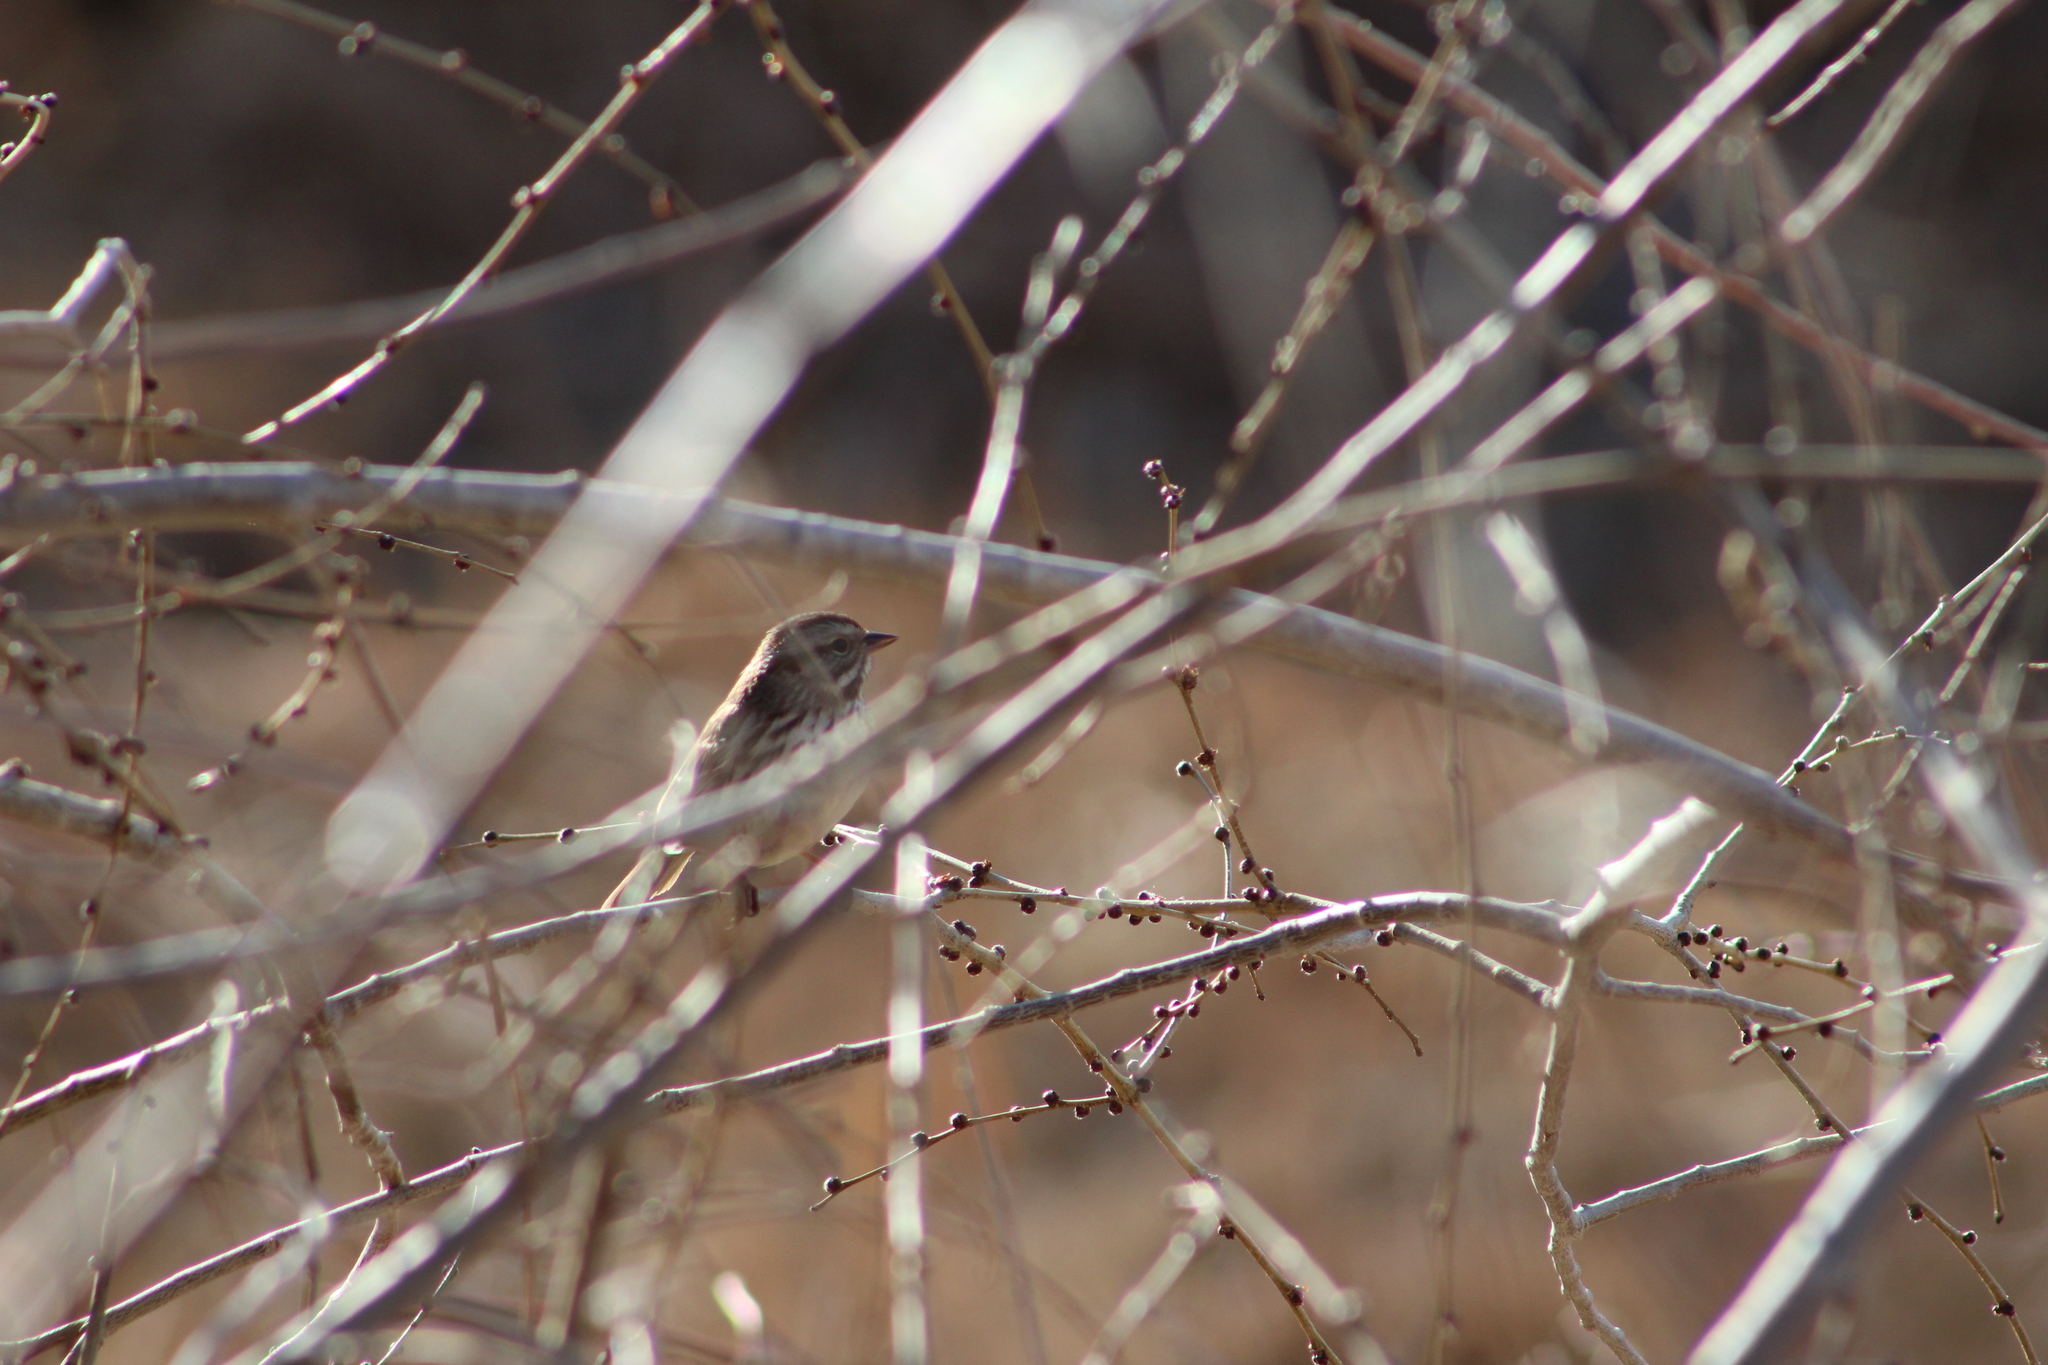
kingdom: Animalia
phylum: Chordata
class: Aves
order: Passeriformes
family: Passerellidae
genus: Melospiza
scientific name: Melospiza melodia
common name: Song sparrow
